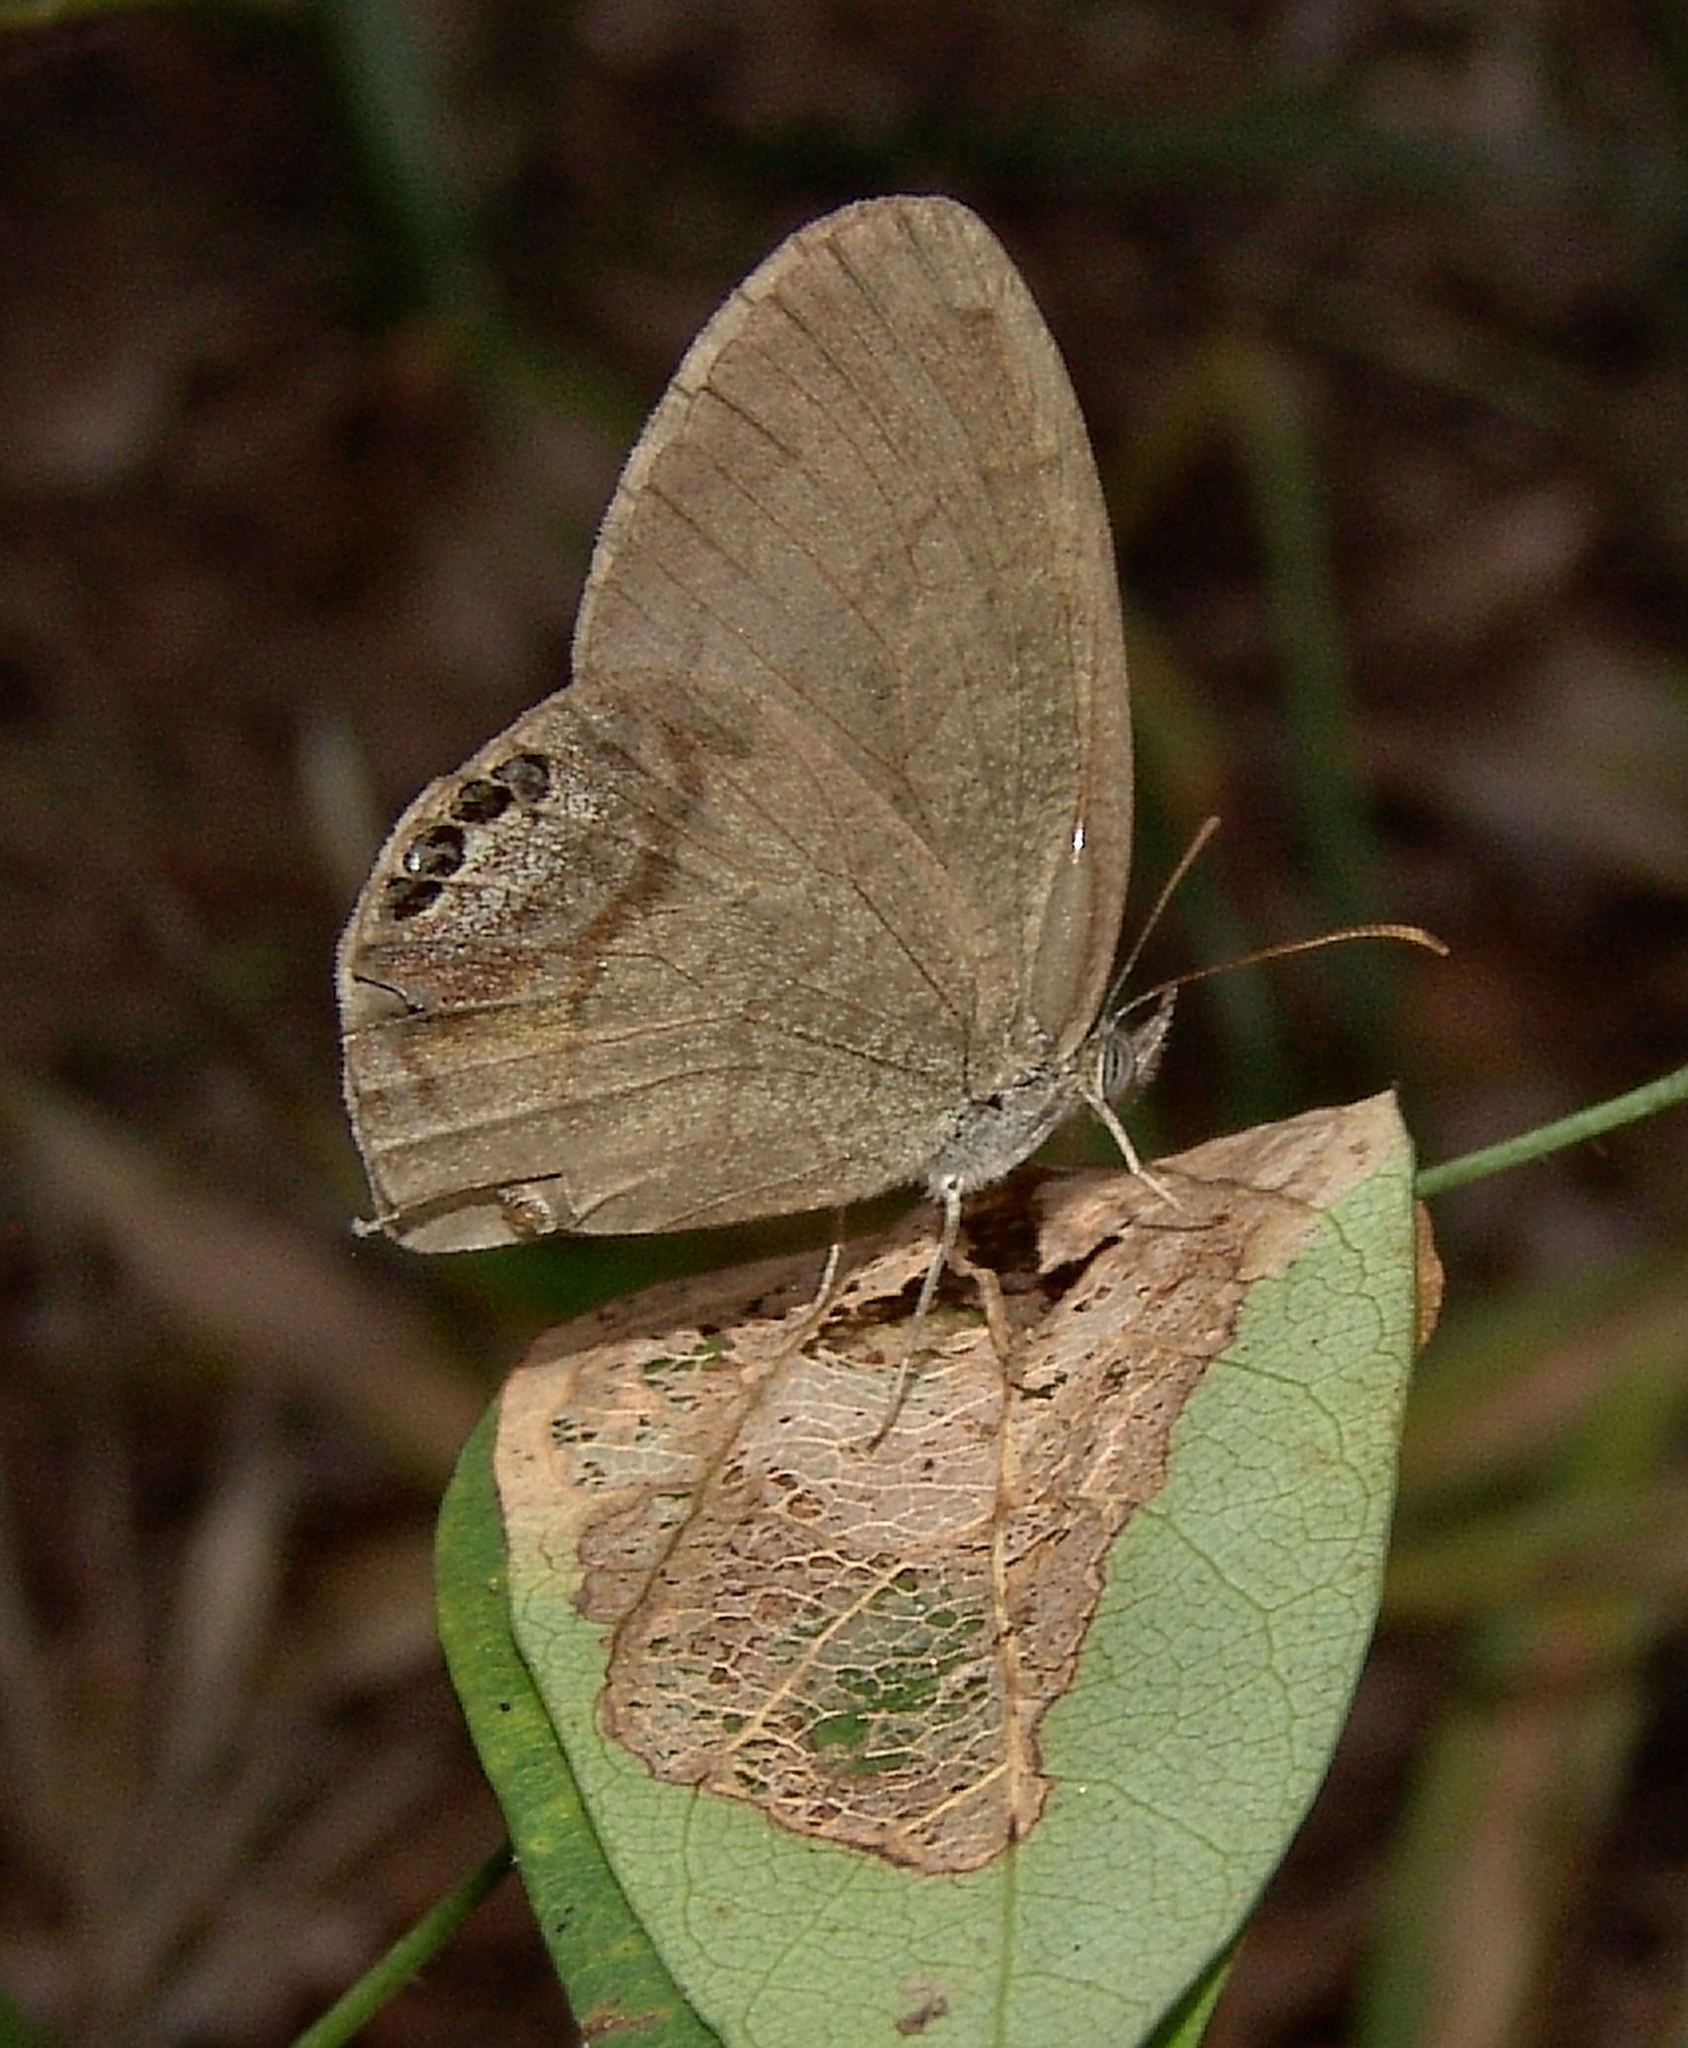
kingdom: Animalia
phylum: Arthropoda
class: Insecta
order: Lepidoptera
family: Nymphalidae
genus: Euptychia
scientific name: Euptychia cornelius
